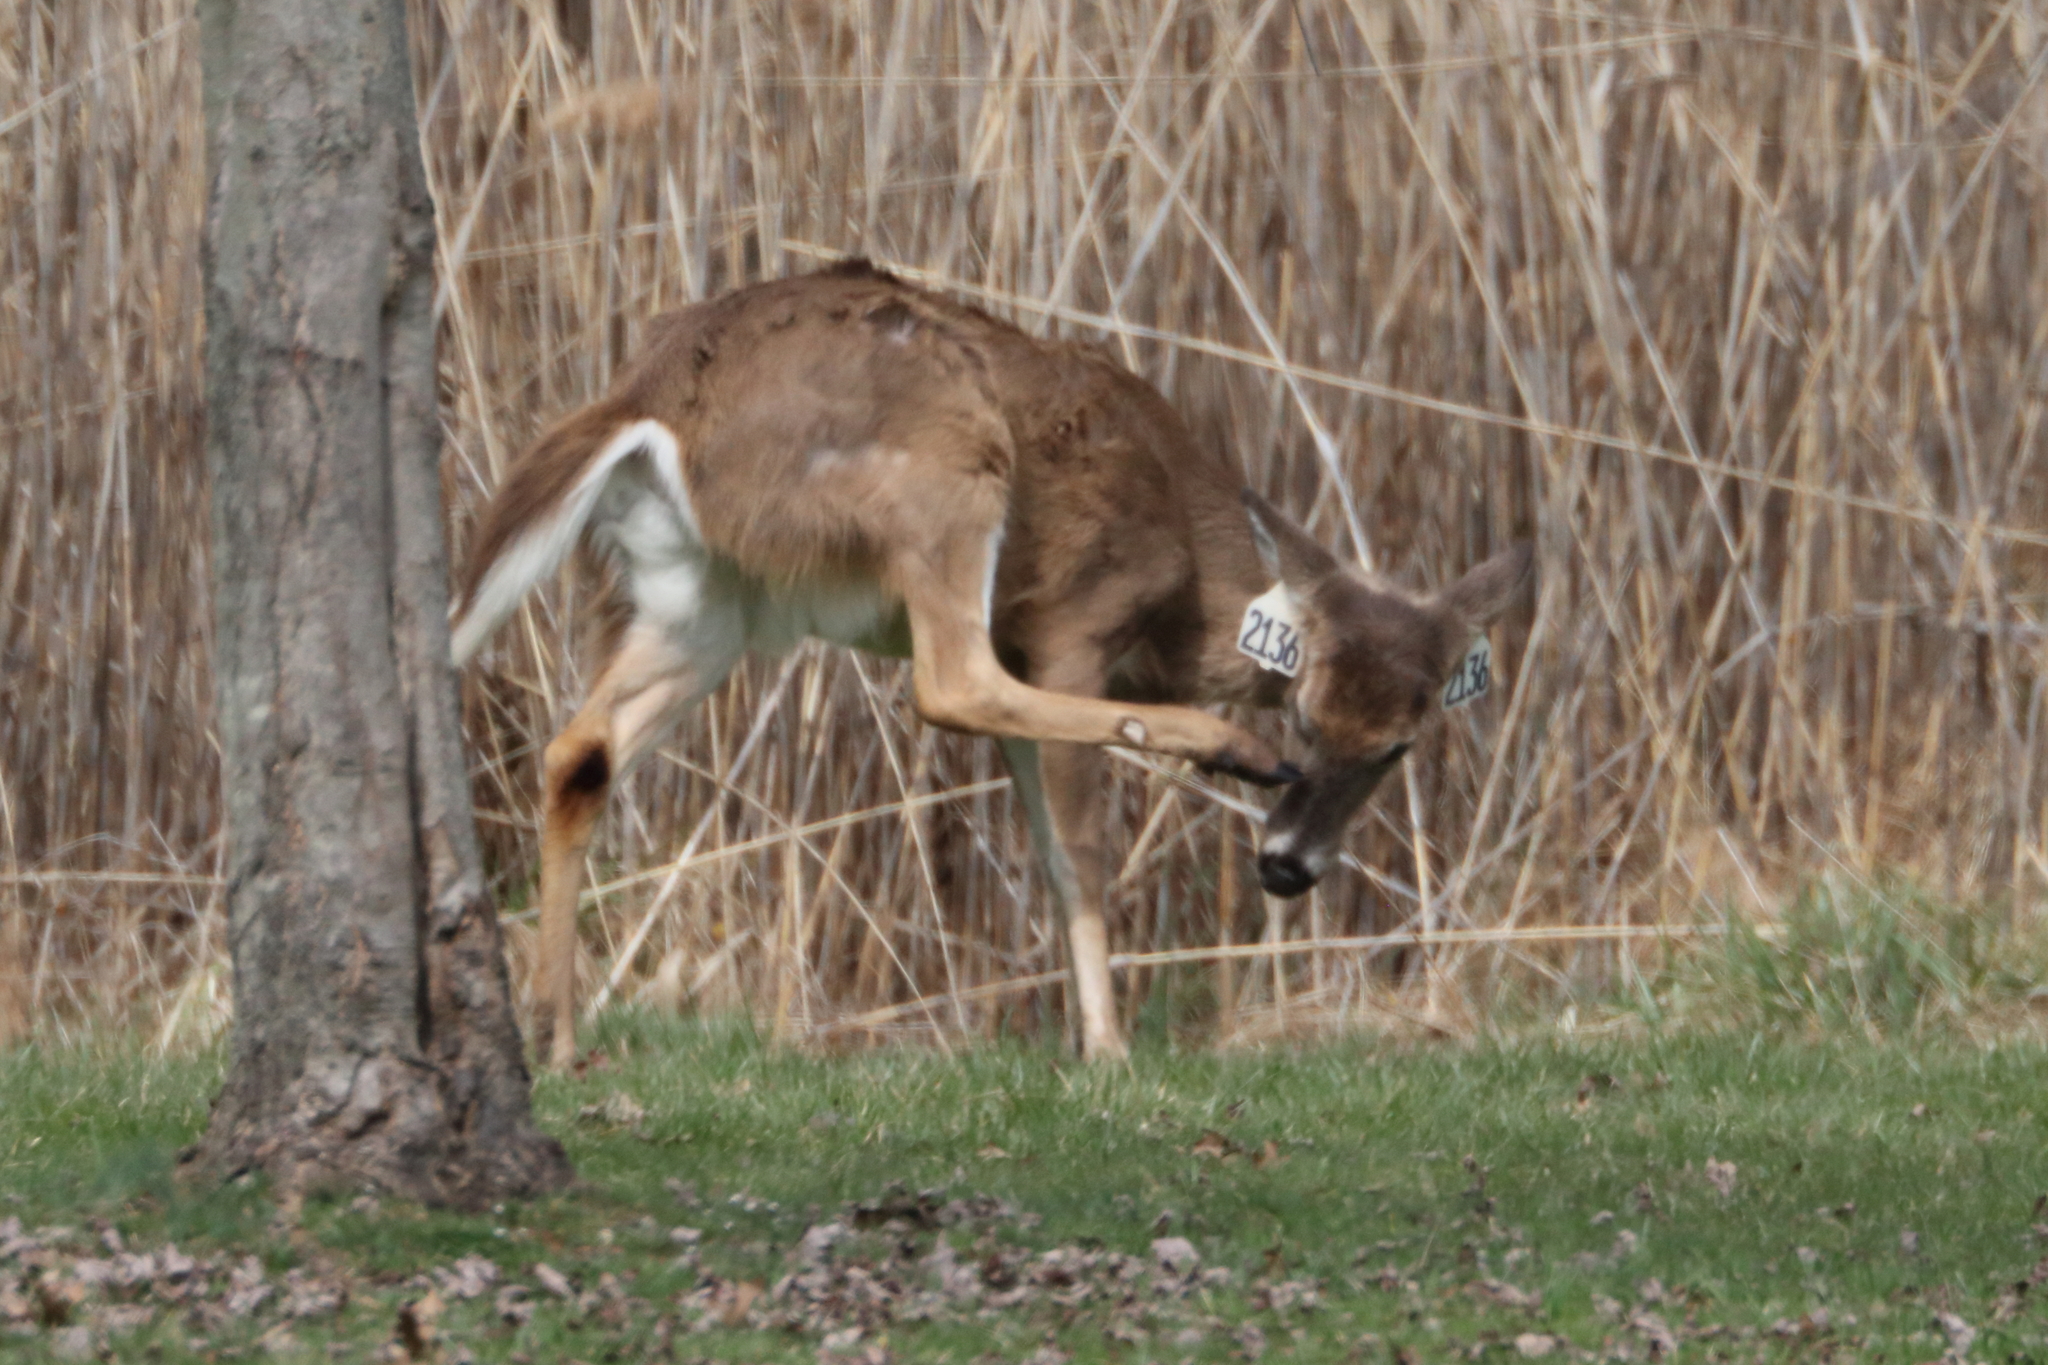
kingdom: Animalia
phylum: Chordata
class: Mammalia
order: Artiodactyla
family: Cervidae
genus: Odocoileus
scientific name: Odocoileus virginianus
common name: White-tailed deer
